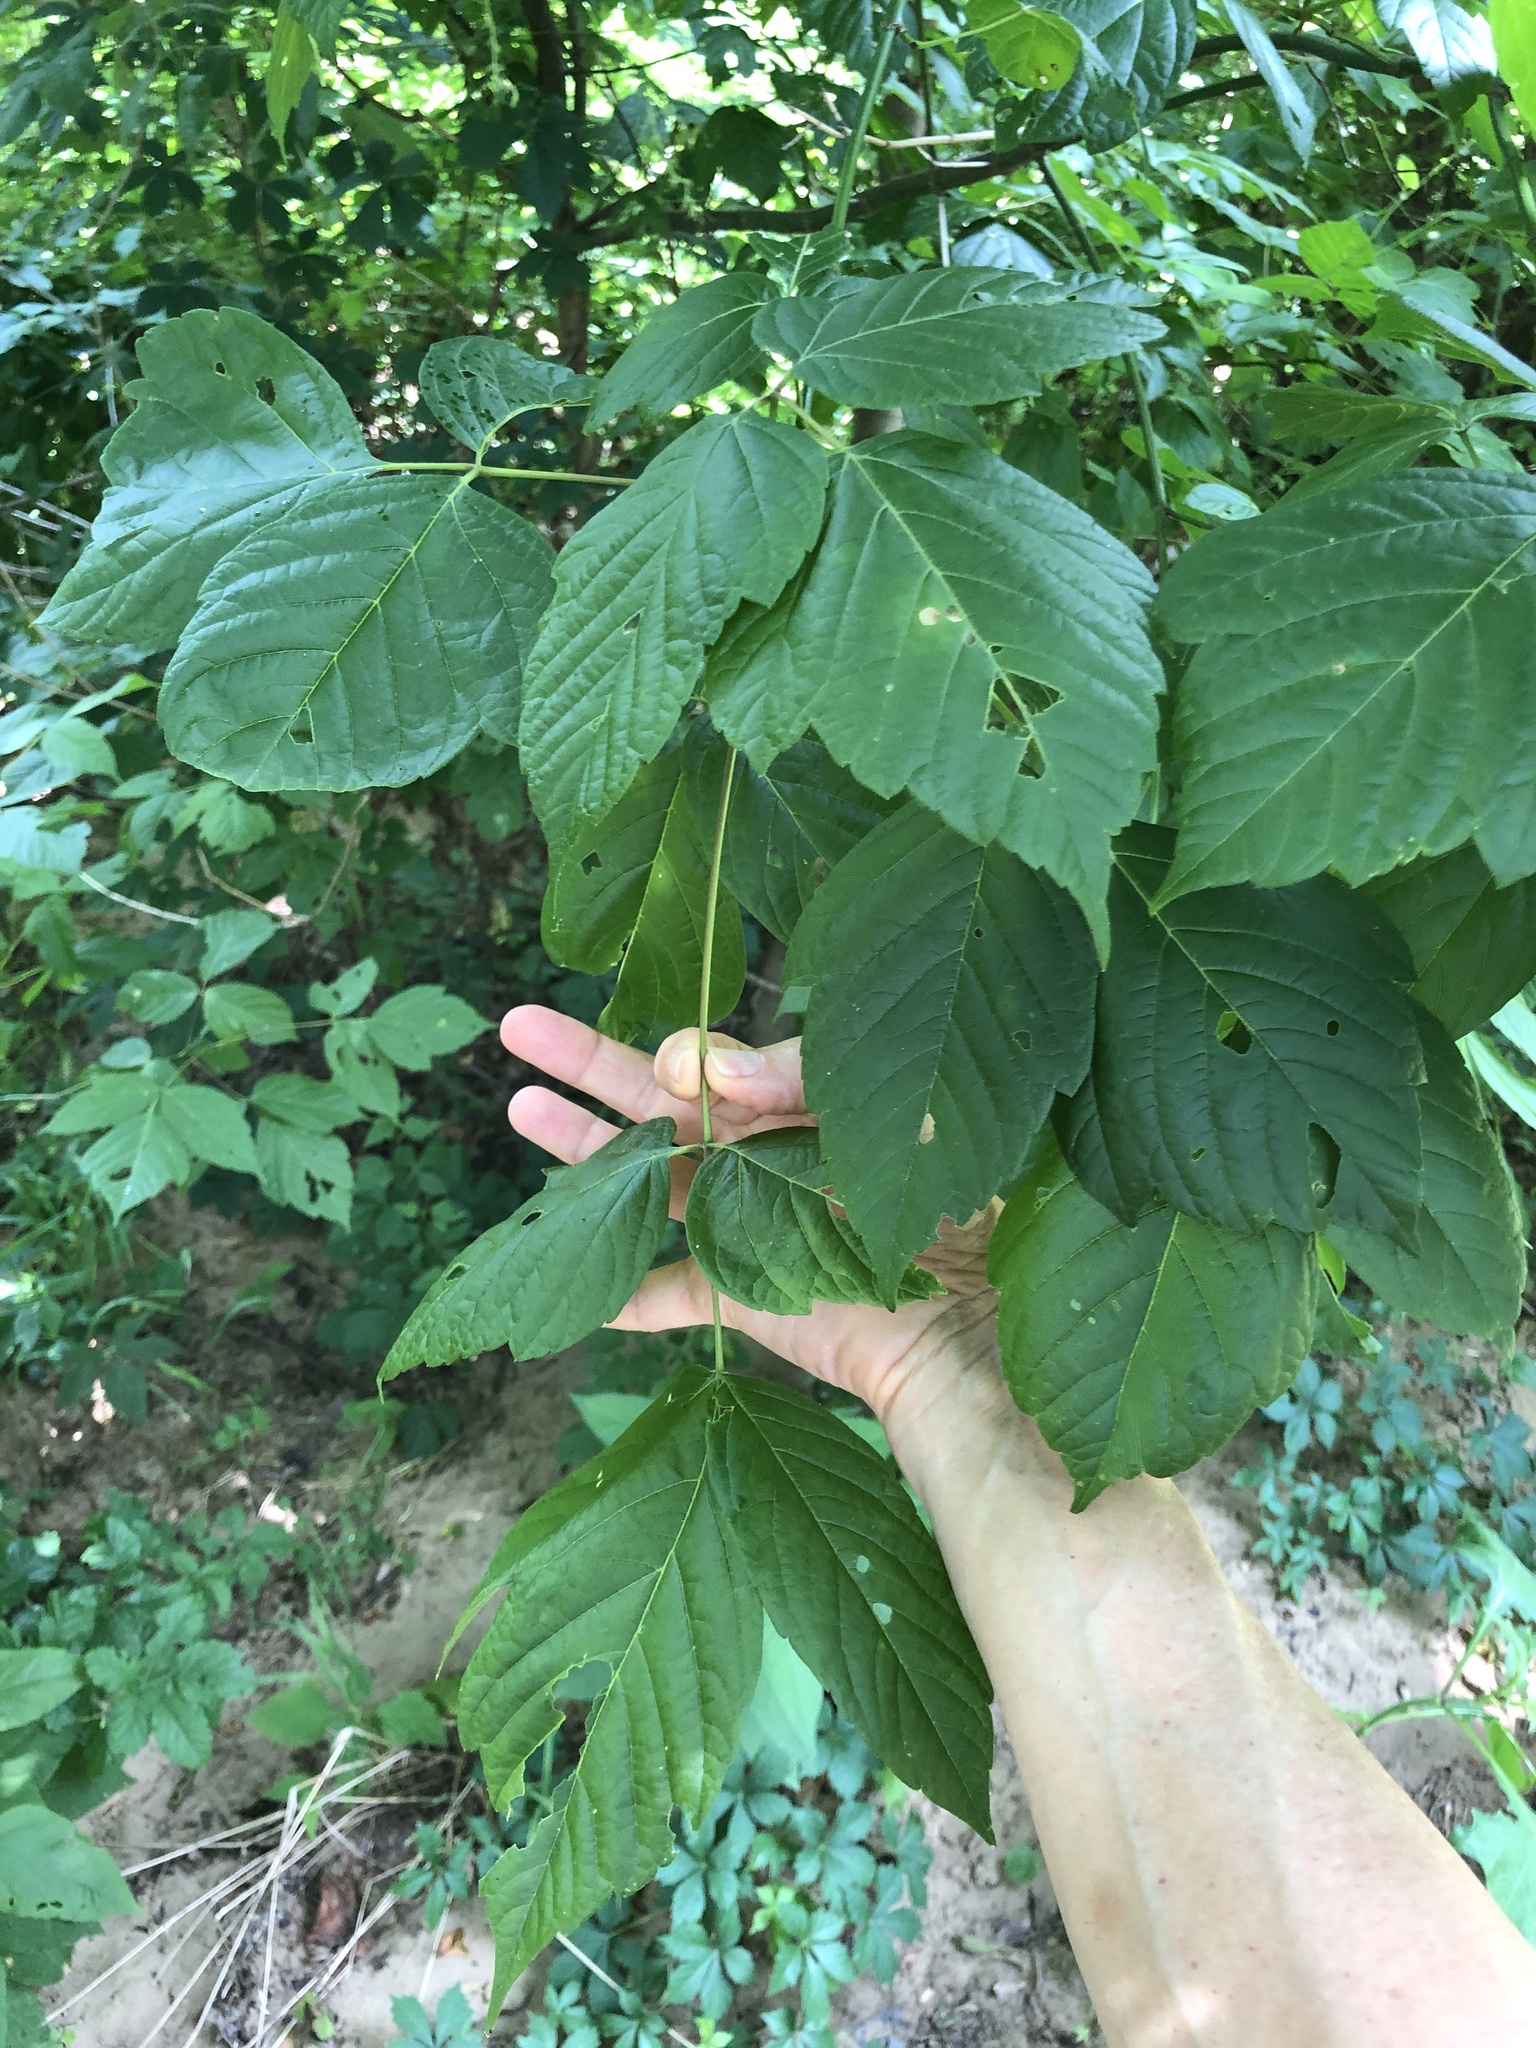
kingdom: Plantae
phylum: Tracheophyta
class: Magnoliopsida
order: Sapindales
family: Sapindaceae
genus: Acer
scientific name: Acer negundo
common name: Ashleaf maple
